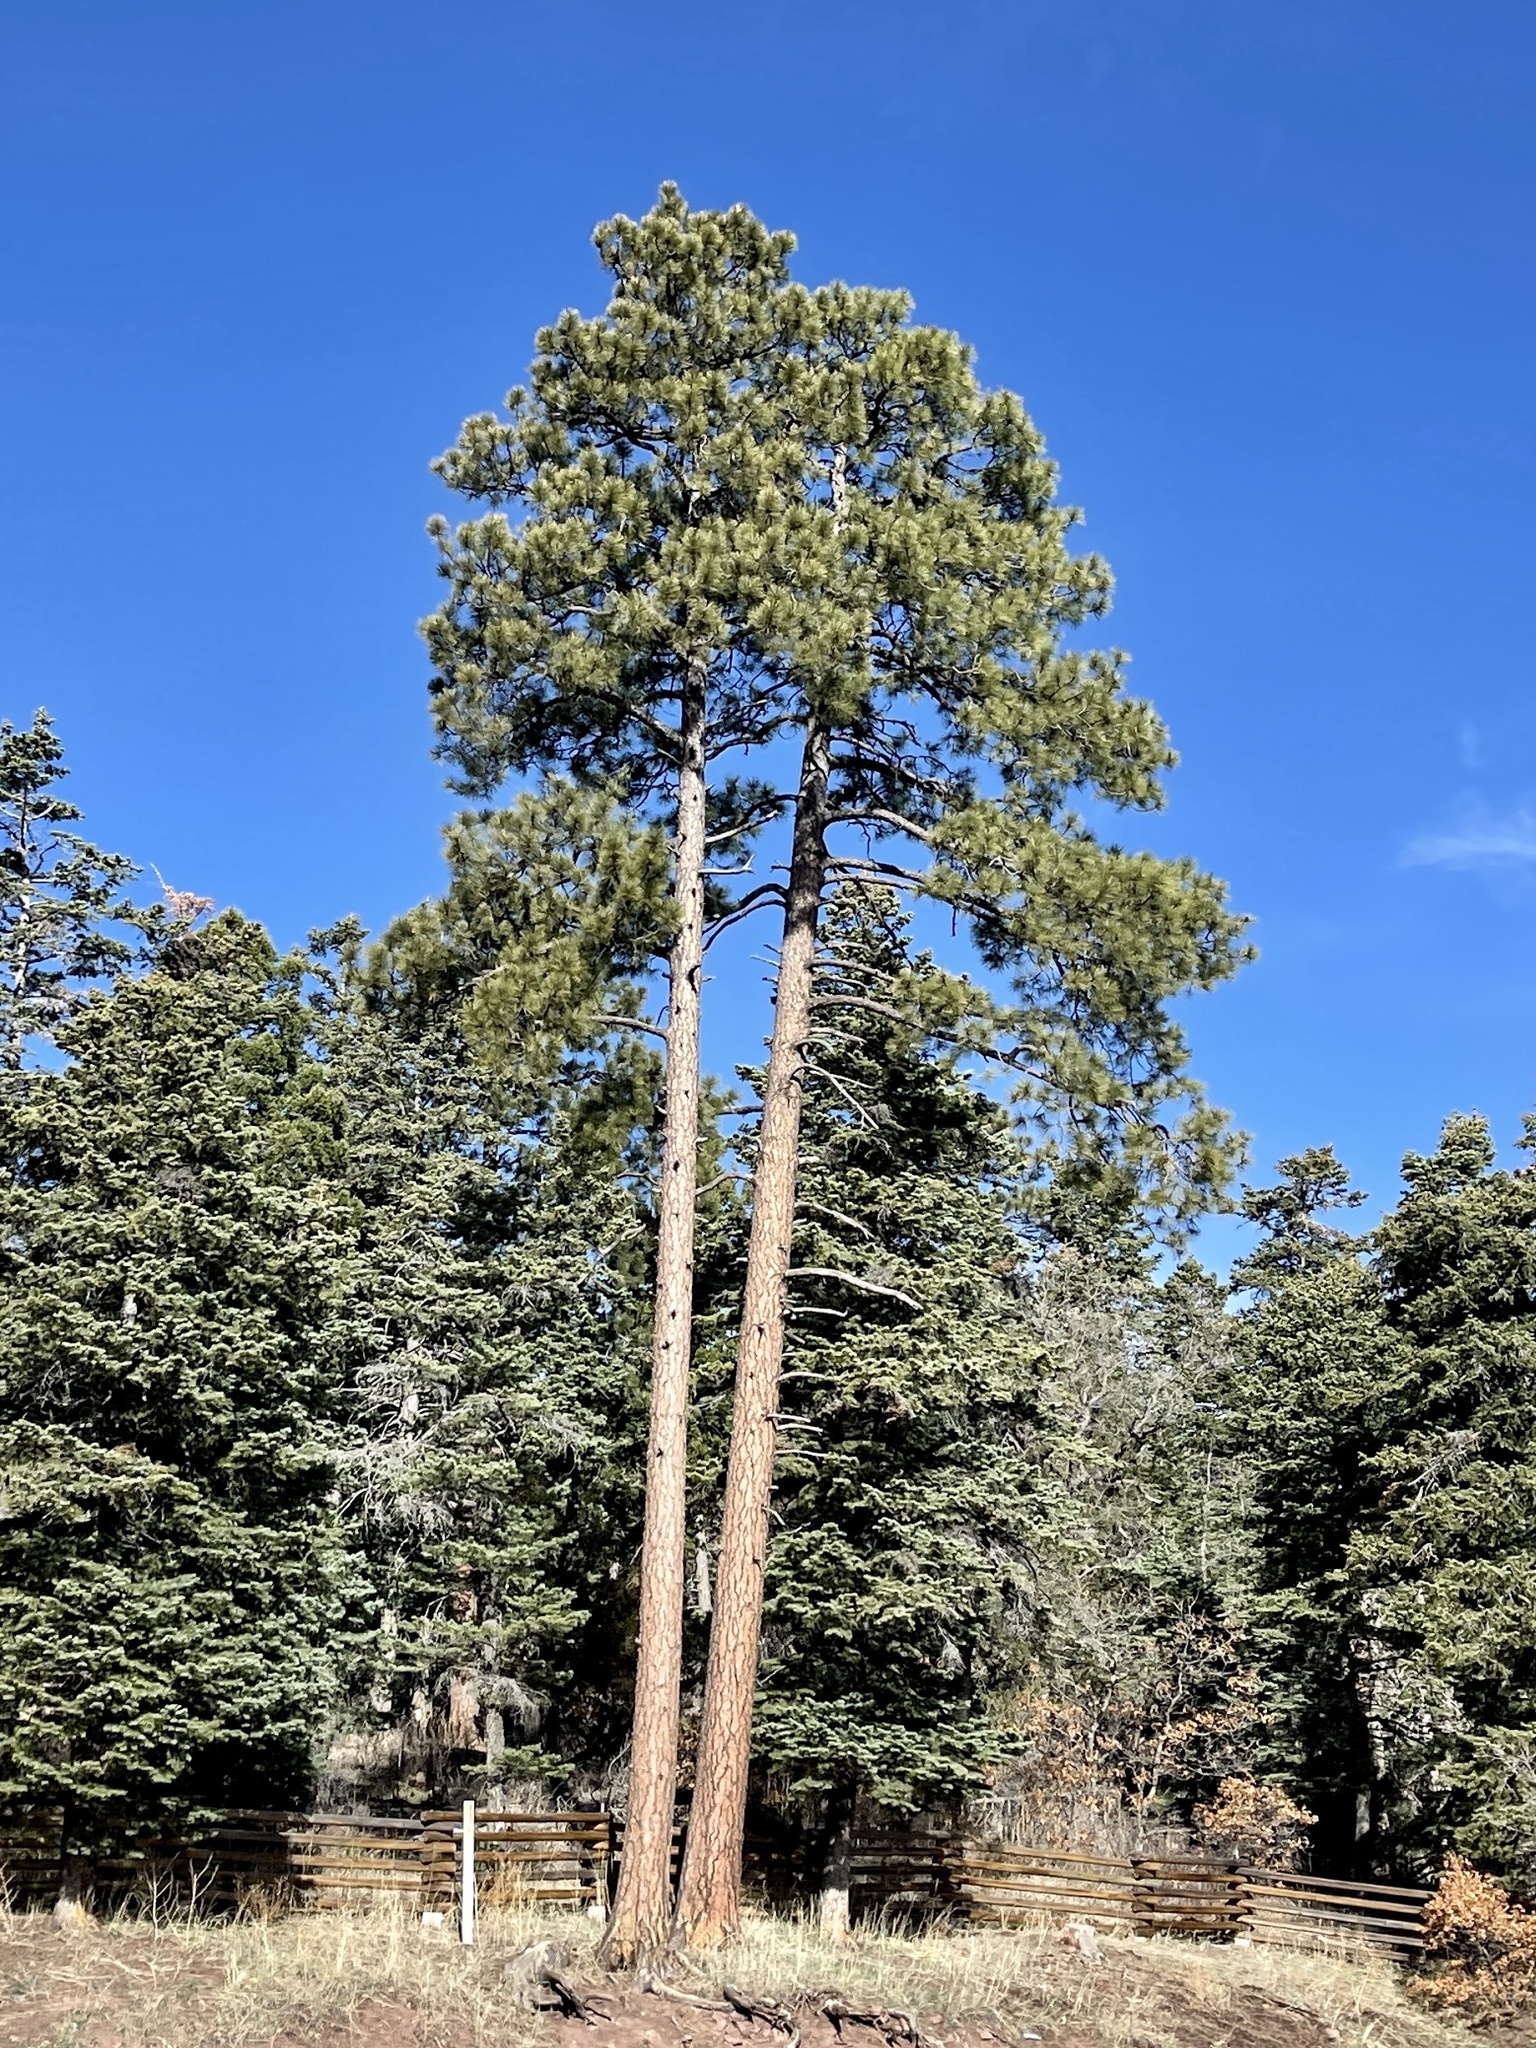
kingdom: Plantae
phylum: Tracheophyta
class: Pinopsida
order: Pinales
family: Pinaceae
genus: Pinus
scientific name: Pinus ponderosa
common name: Western yellow-pine
